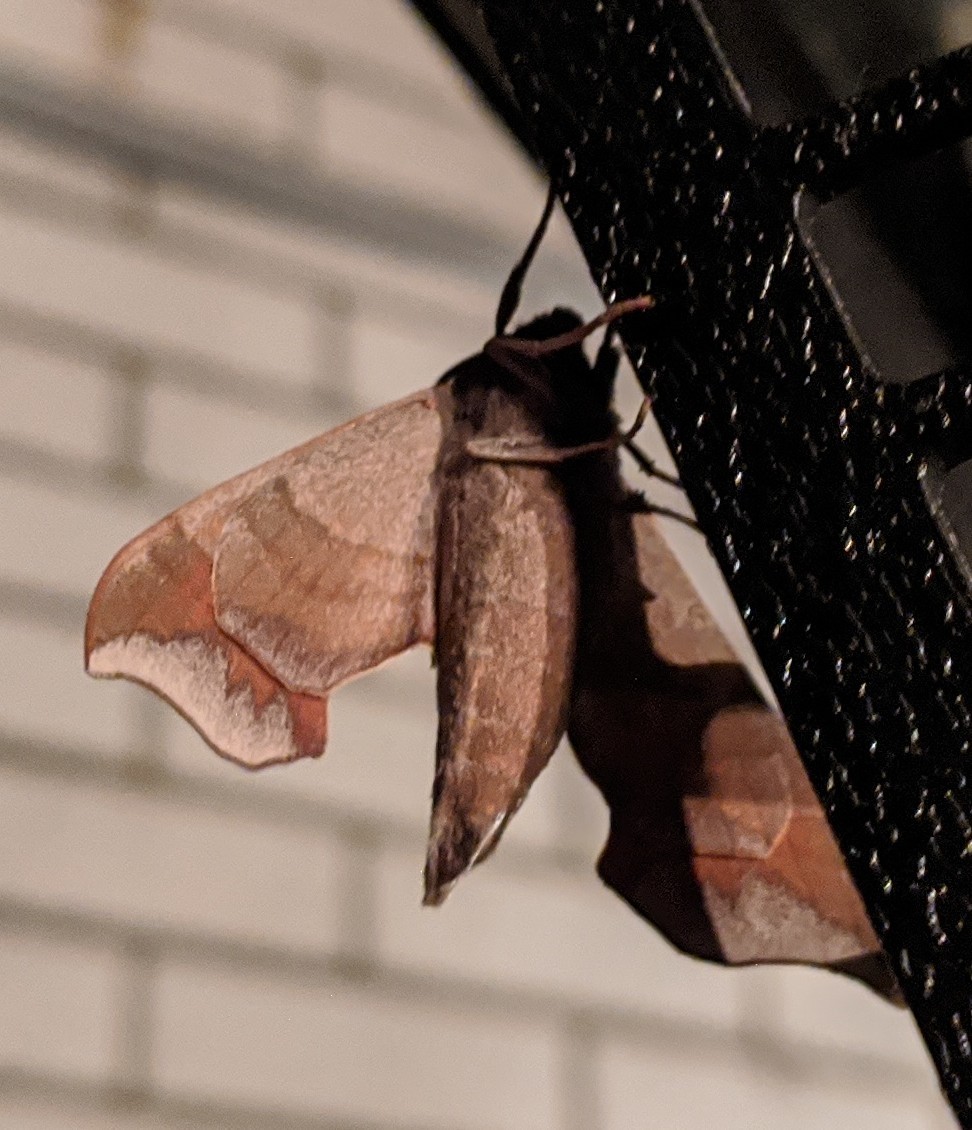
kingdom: Animalia
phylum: Arthropoda
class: Insecta
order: Lepidoptera
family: Sphingidae
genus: Darapsa
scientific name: Darapsa myron
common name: Hog sphinx
